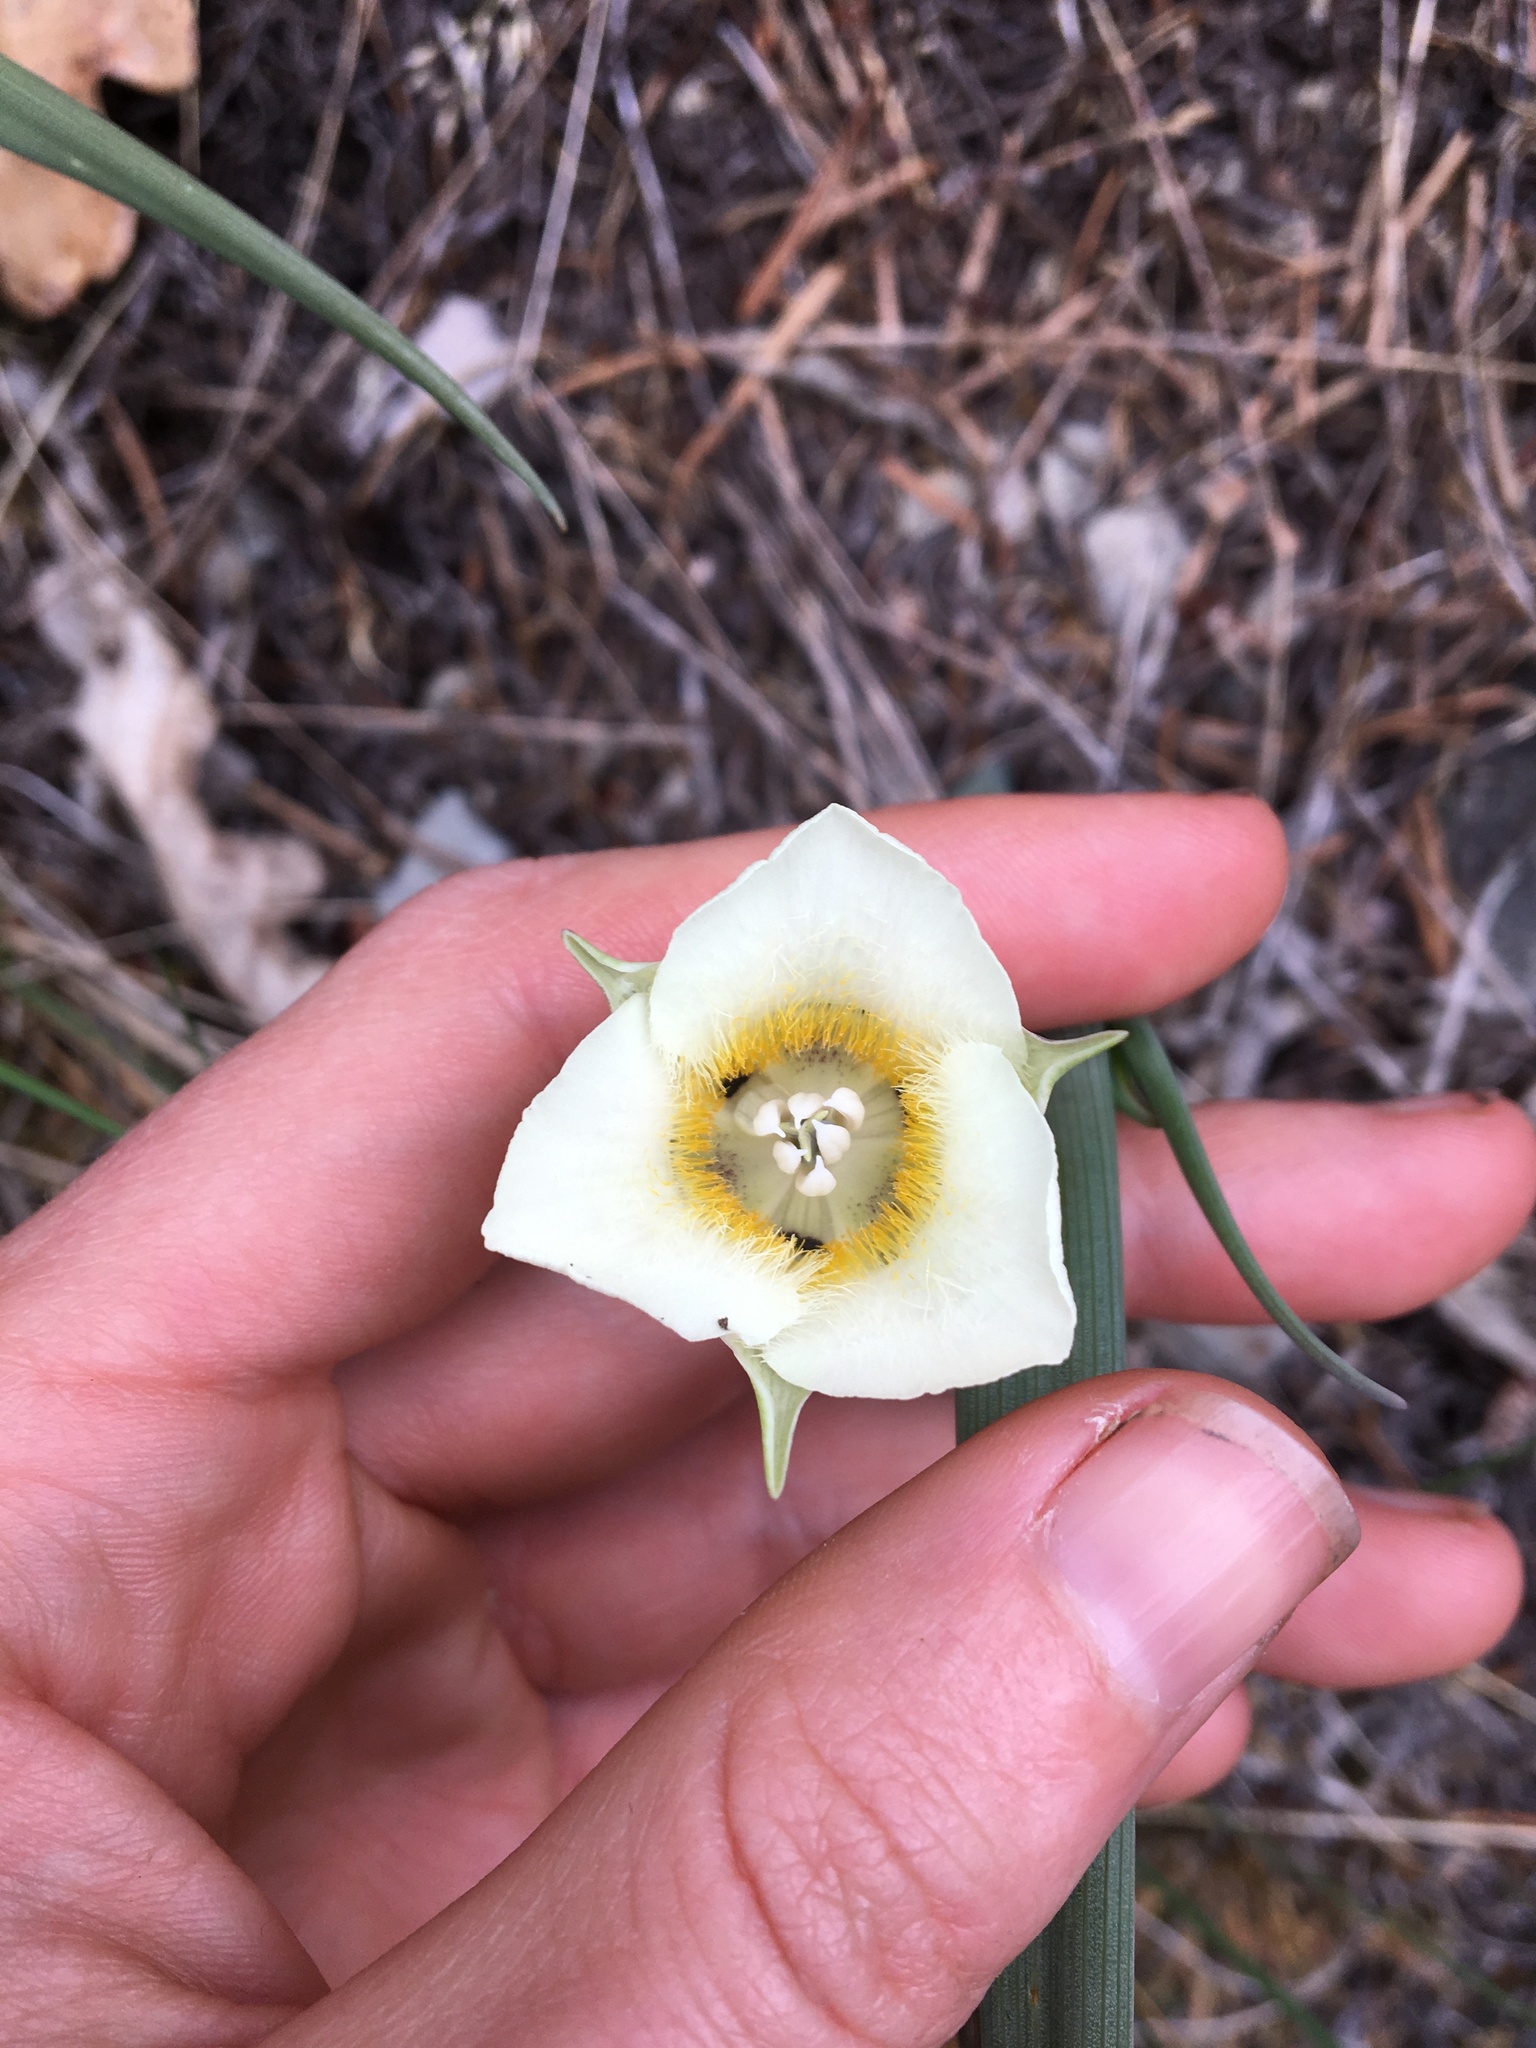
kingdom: Plantae
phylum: Tracheophyta
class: Liliopsida
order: Liliales
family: Liliaceae
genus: Calochortus
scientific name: Calochortus subalpinus
